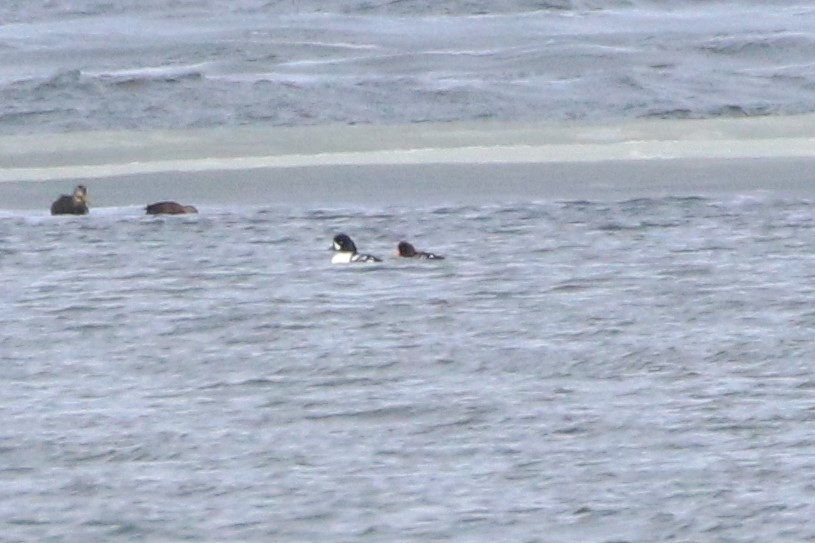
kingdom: Animalia
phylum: Chordata
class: Aves
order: Anseriformes
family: Anatidae
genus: Bucephala
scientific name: Bucephala islandica
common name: Barrow's goldeneye
